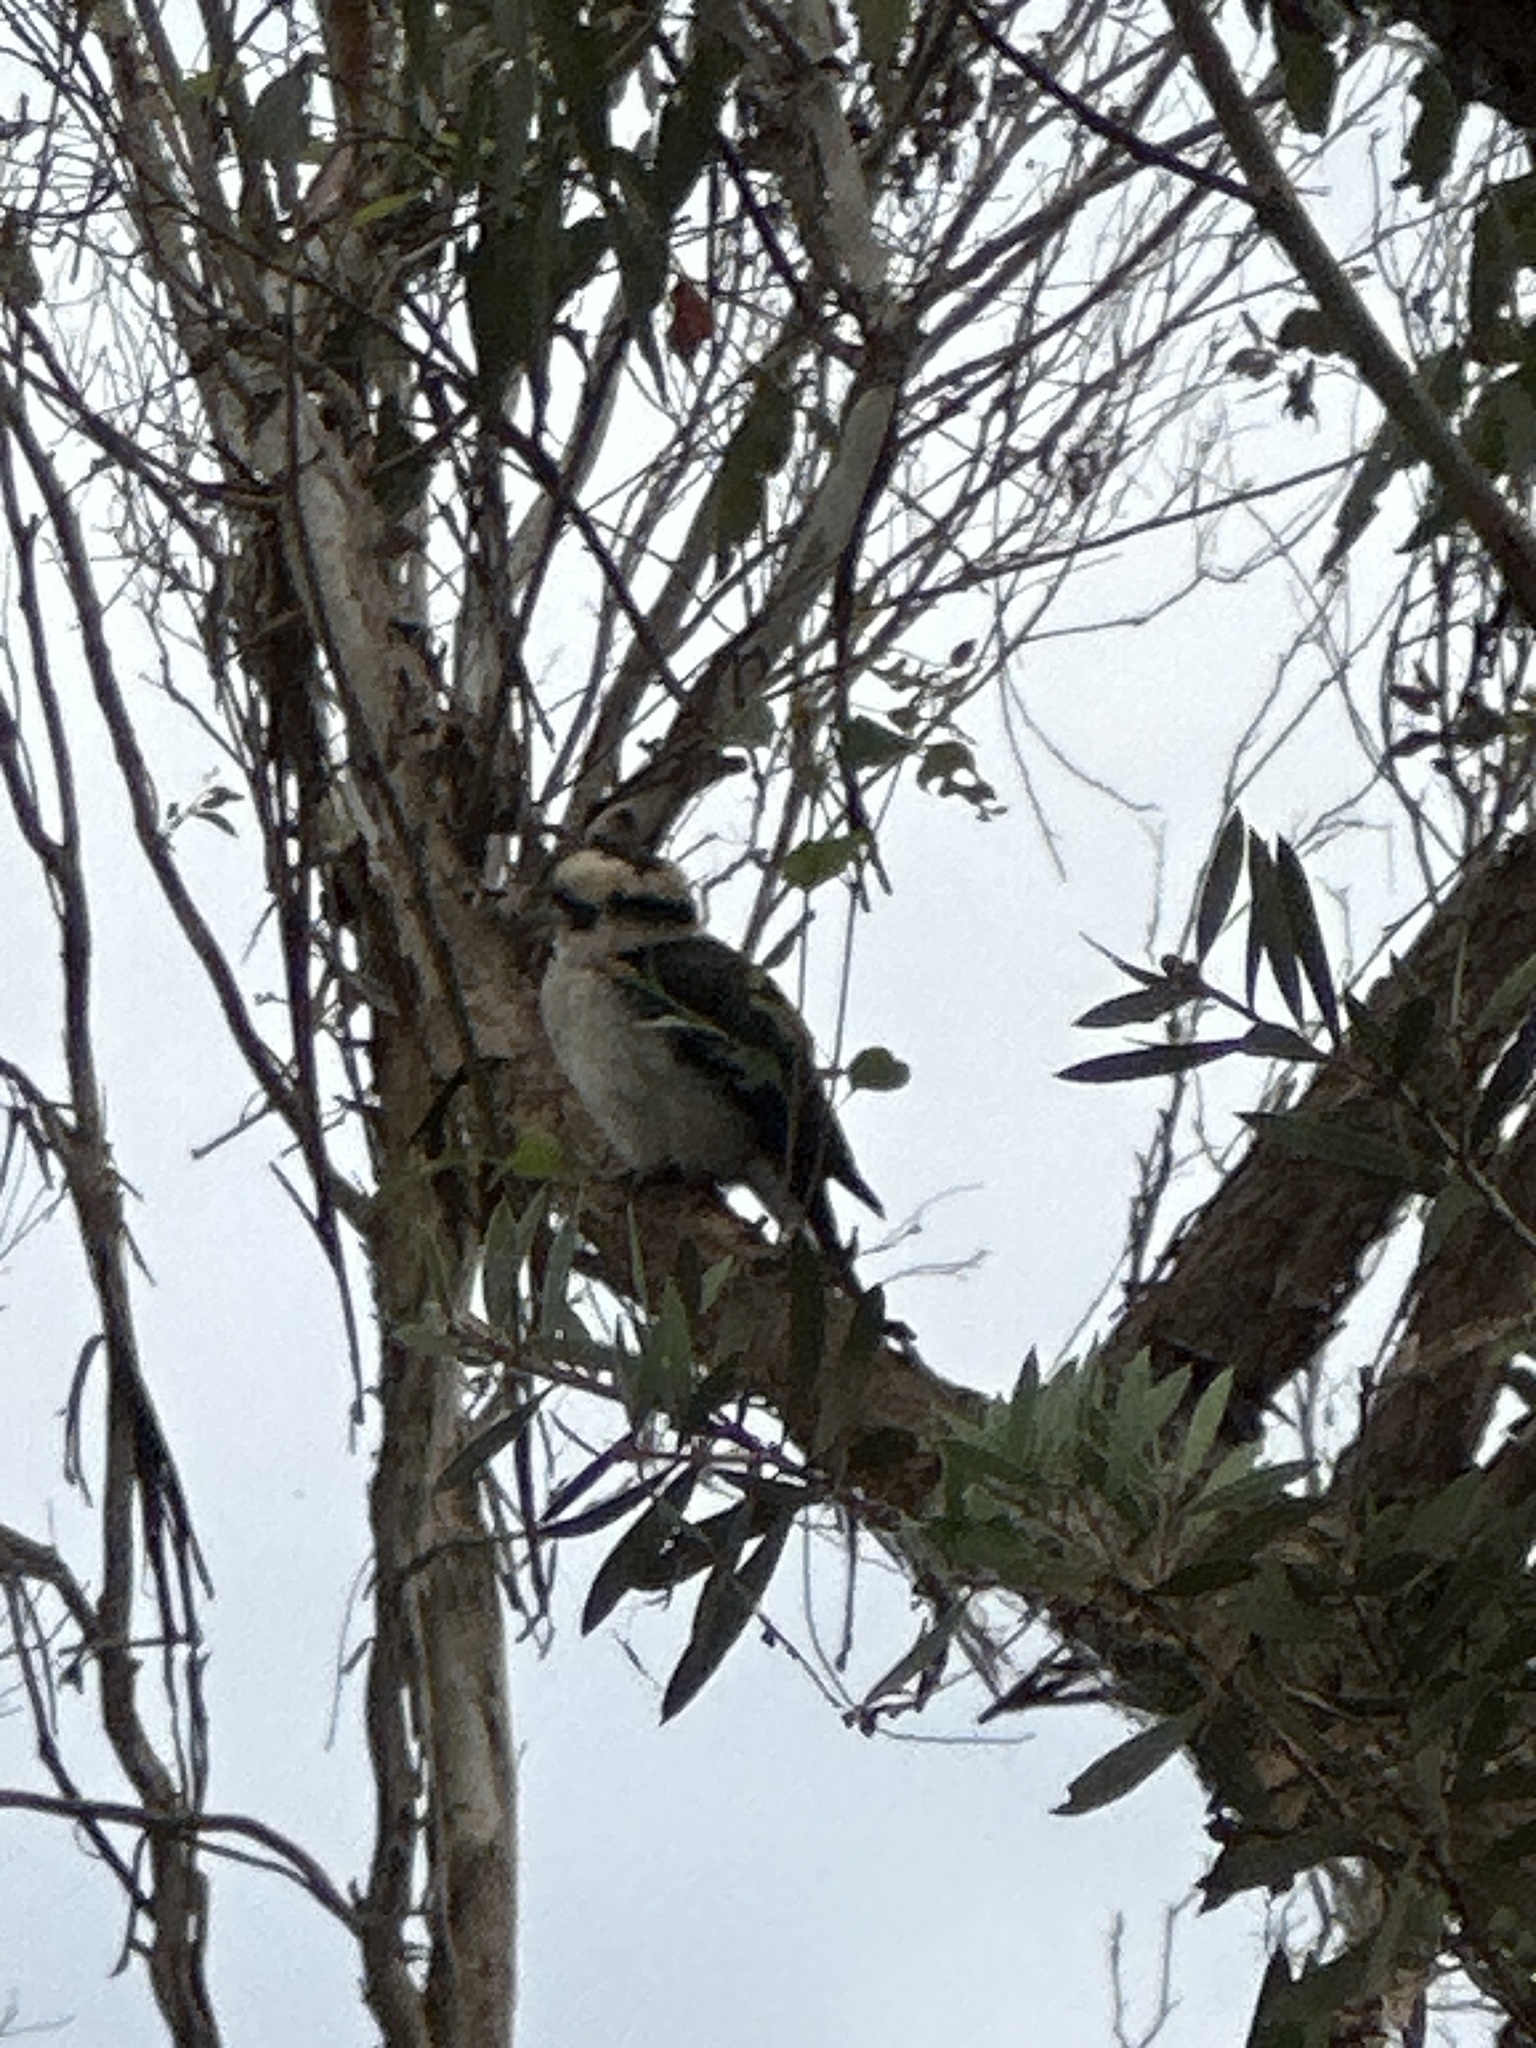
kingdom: Animalia
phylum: Chordata
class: Aves
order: Coraciiformes
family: Alcedinidae
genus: Dacelo
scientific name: Dacelo novaeguineae
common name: Laughing kookaburra
